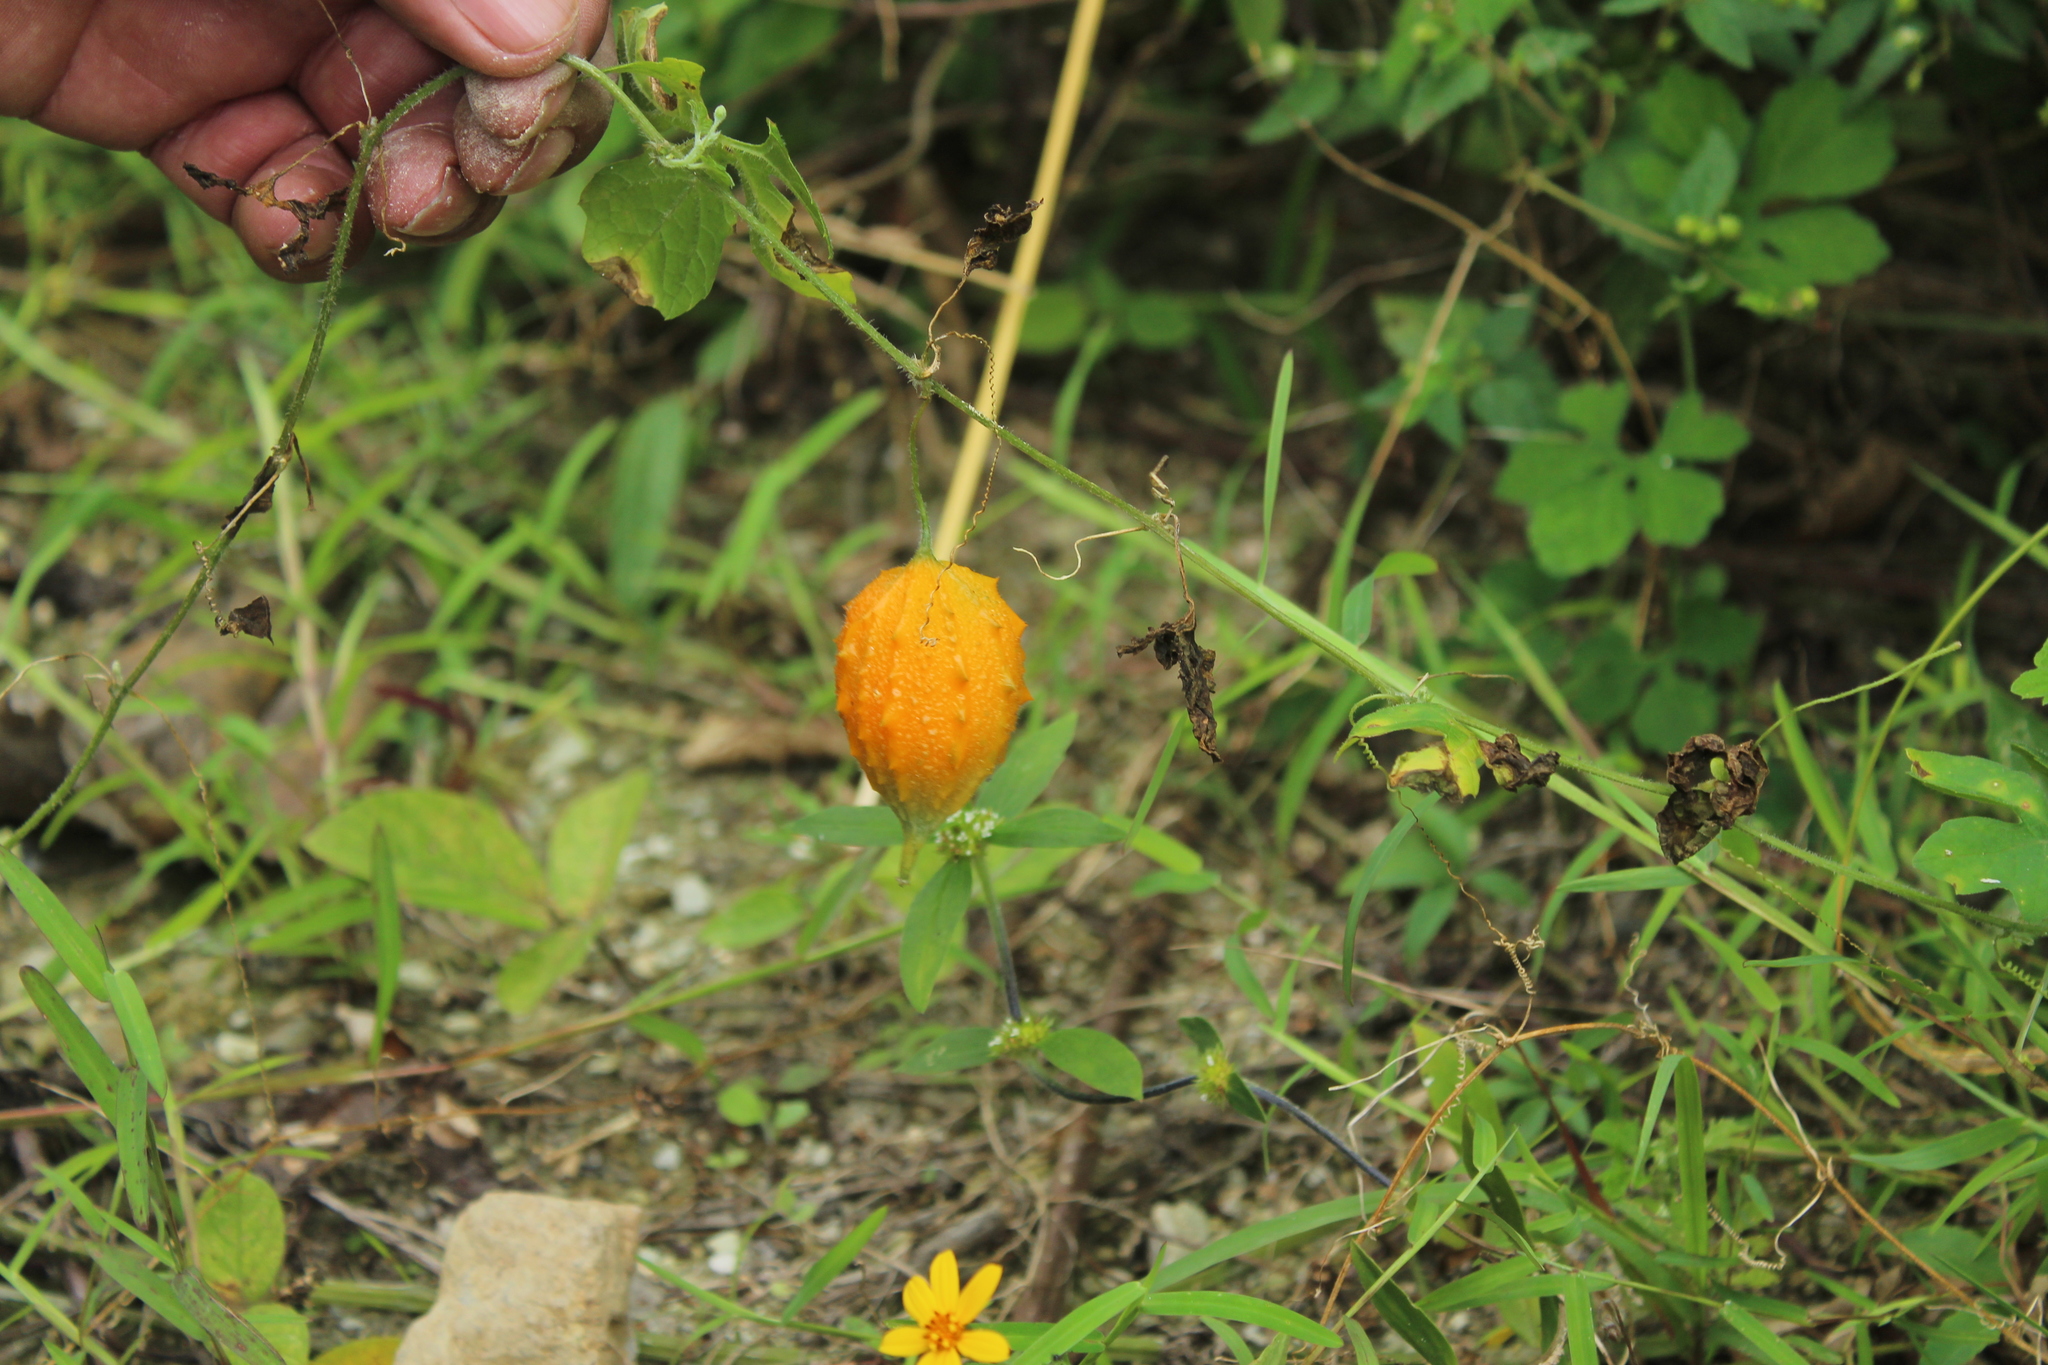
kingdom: Plantae
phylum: Tracheophyta
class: Magnoliopsida
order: Cucurbitales
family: Cucurbitaceae
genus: Momordica
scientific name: Momordica charantia
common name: Balsampear
